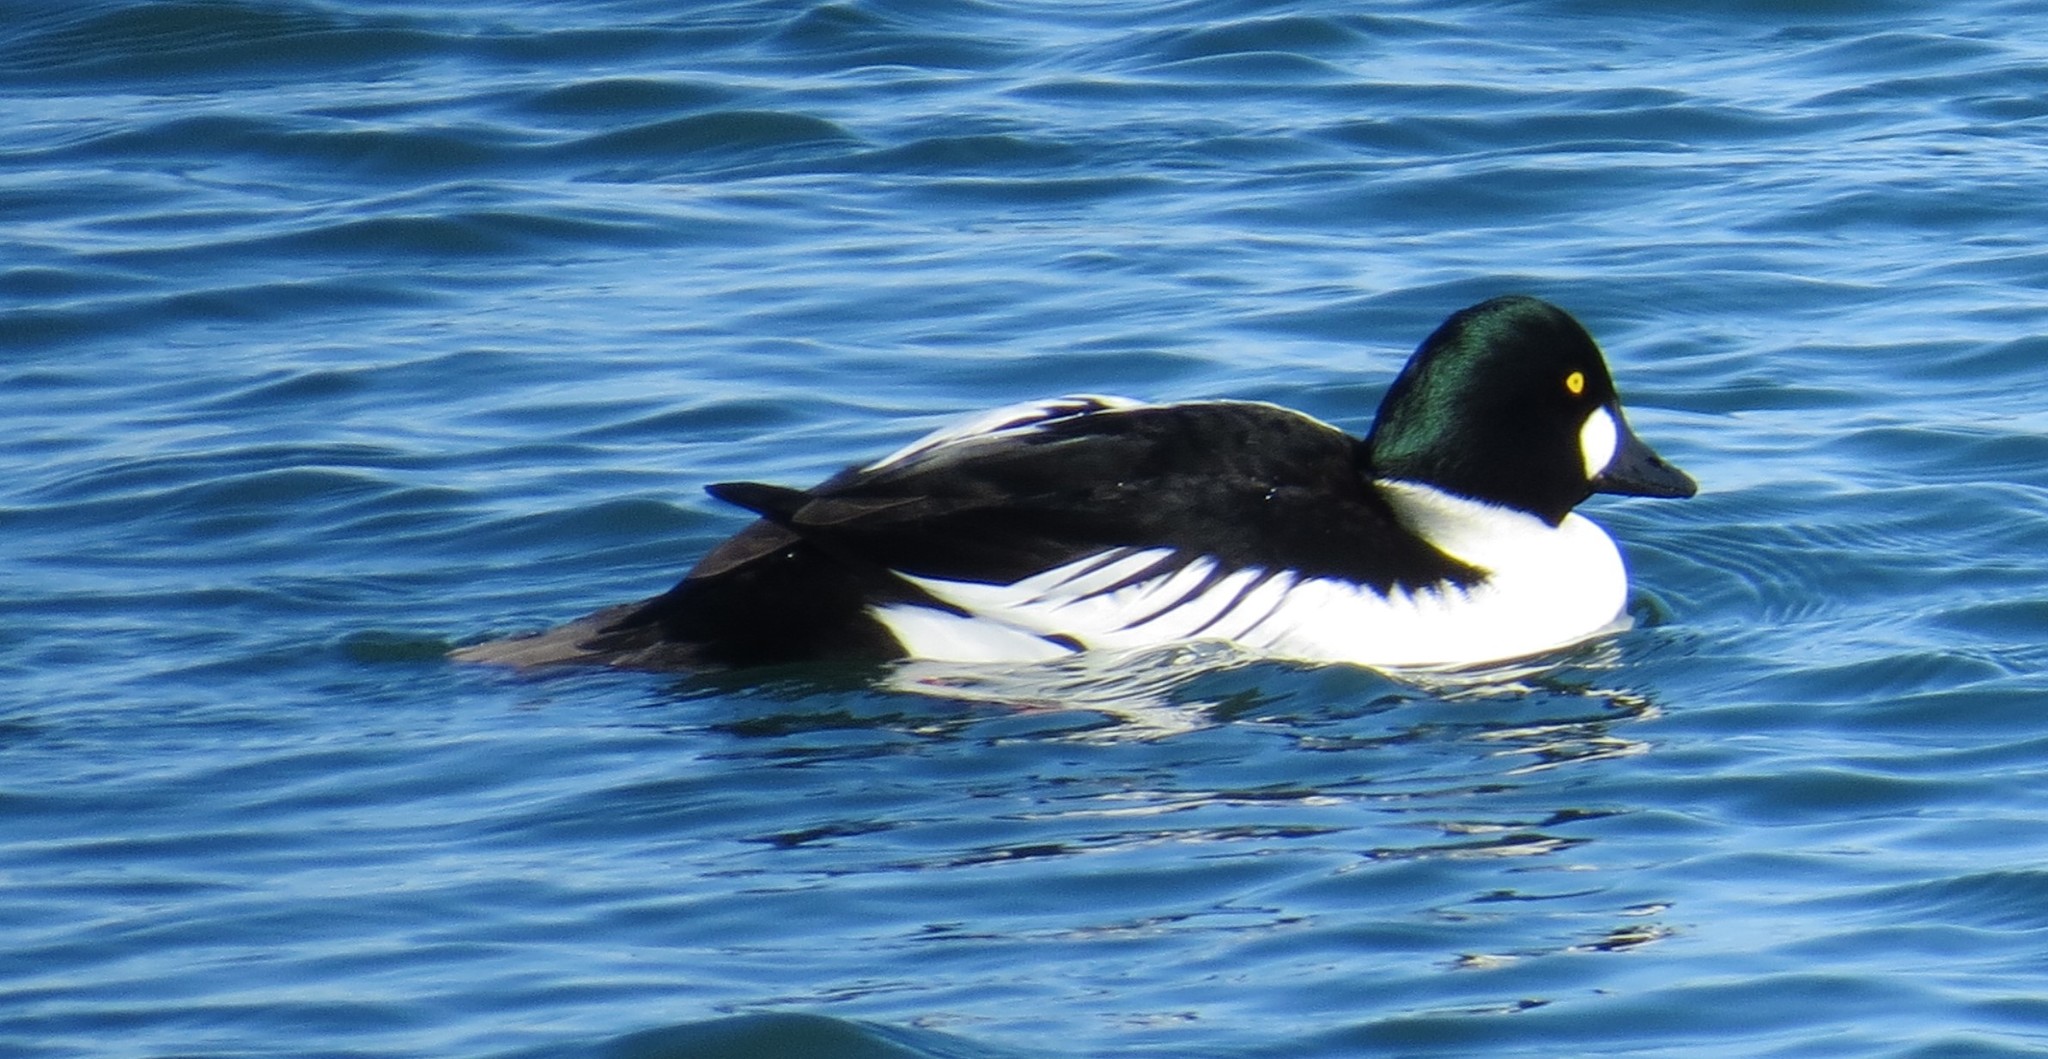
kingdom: Animalia
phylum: Chordata
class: Aves
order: Anseriformes
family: Anatidae
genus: Bucephala
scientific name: Bucephala clangula
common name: Common goldeneye
